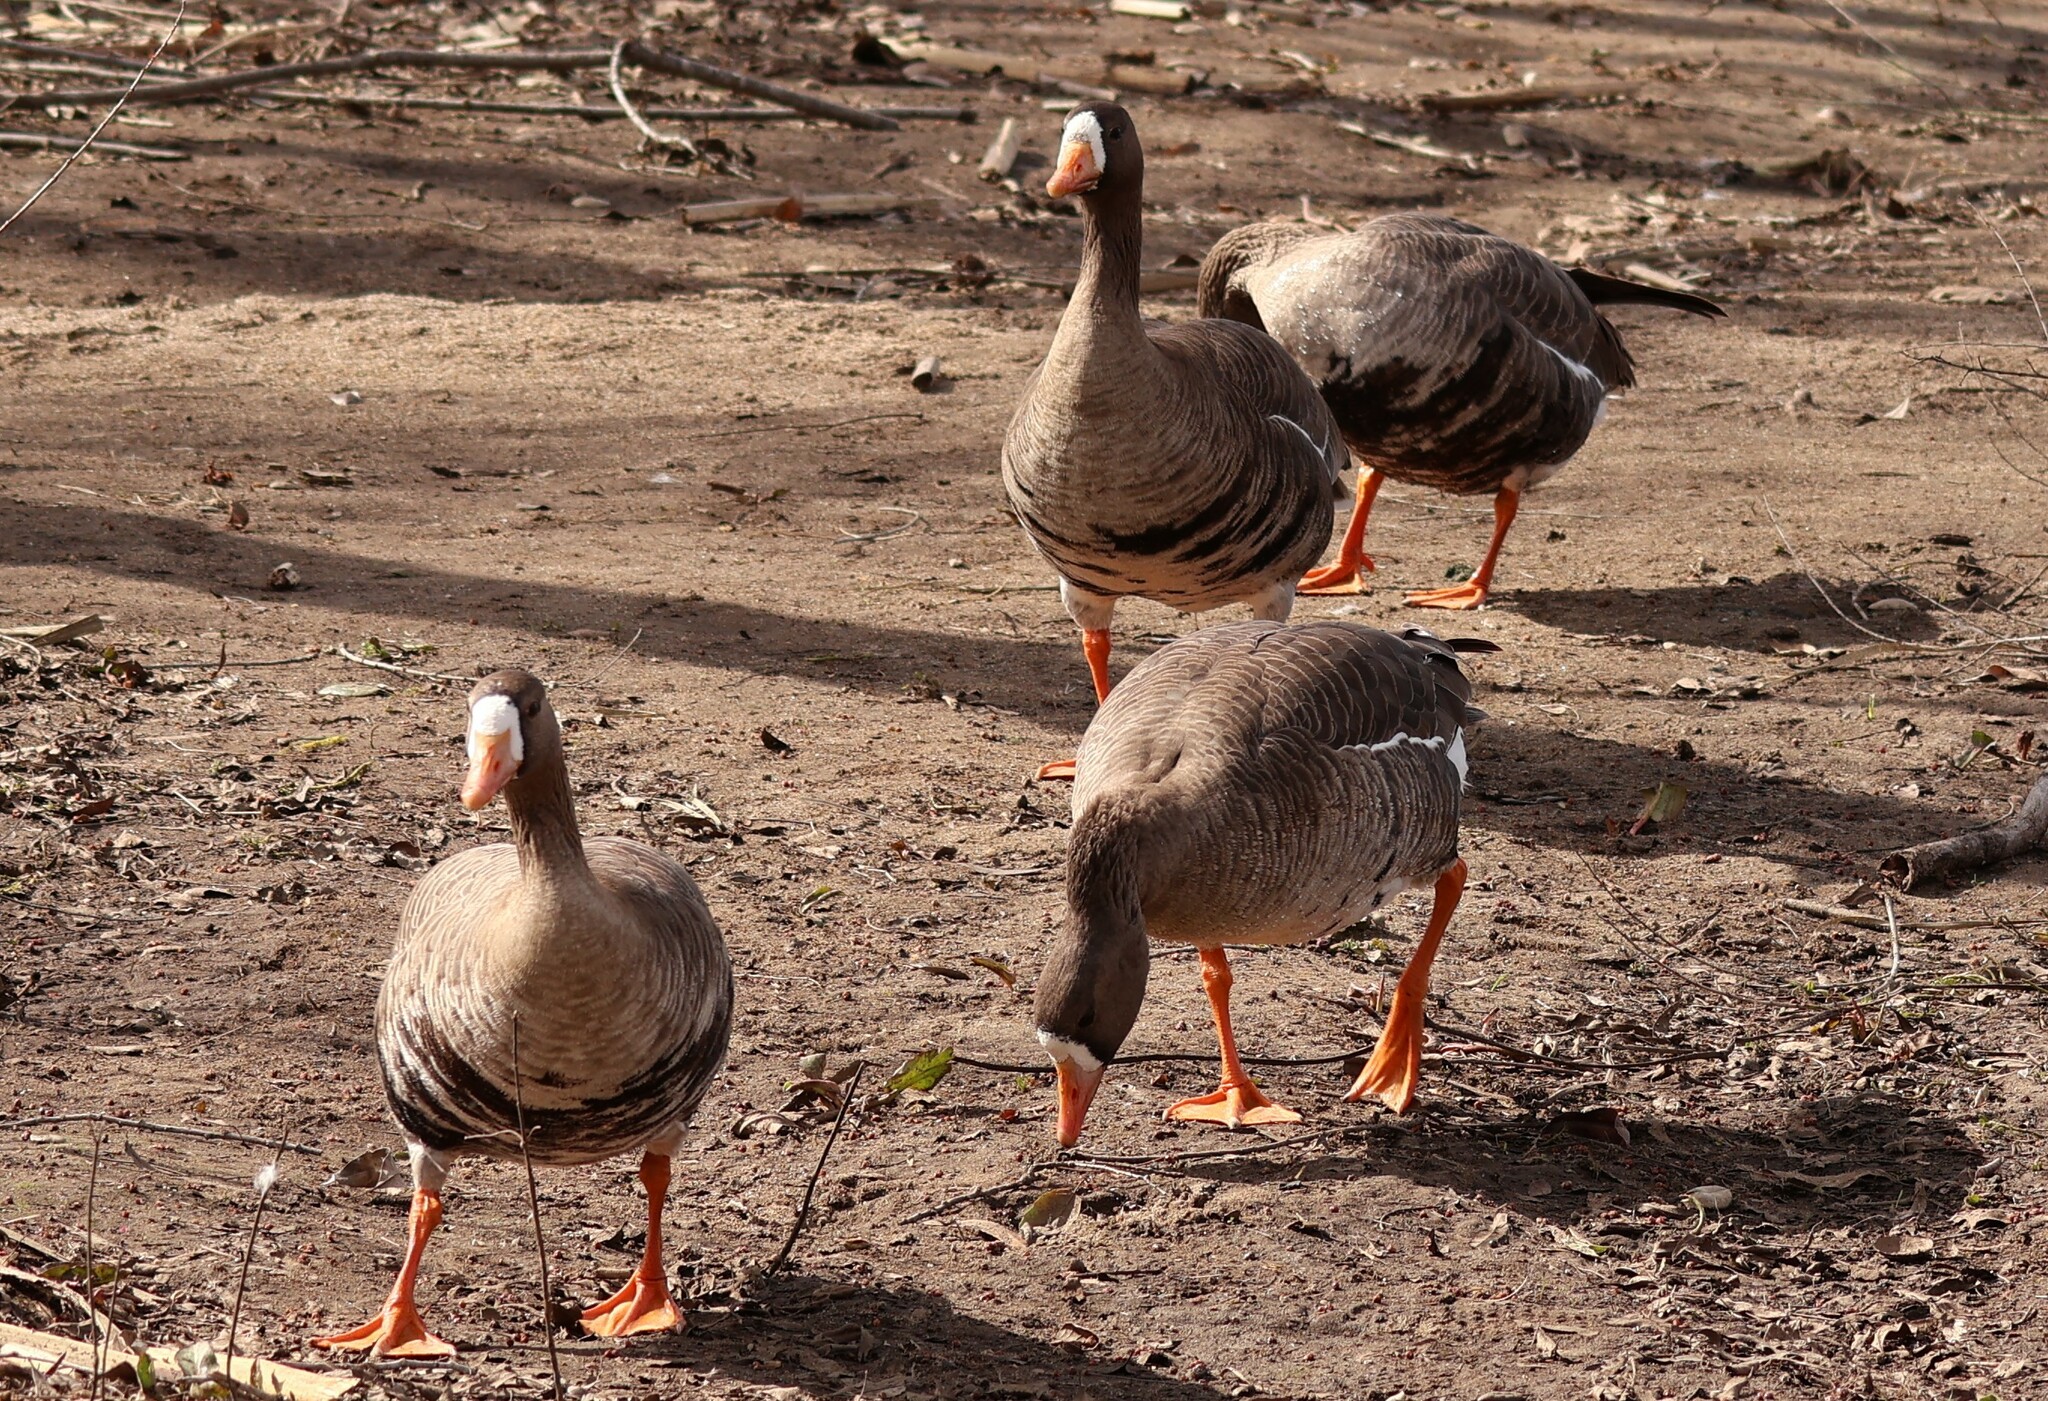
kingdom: Animalia
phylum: Chordata
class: Aves
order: Anseriformes
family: Anatidae
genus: Anser
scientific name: Anser albifrons
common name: Greater white-fronted goose
